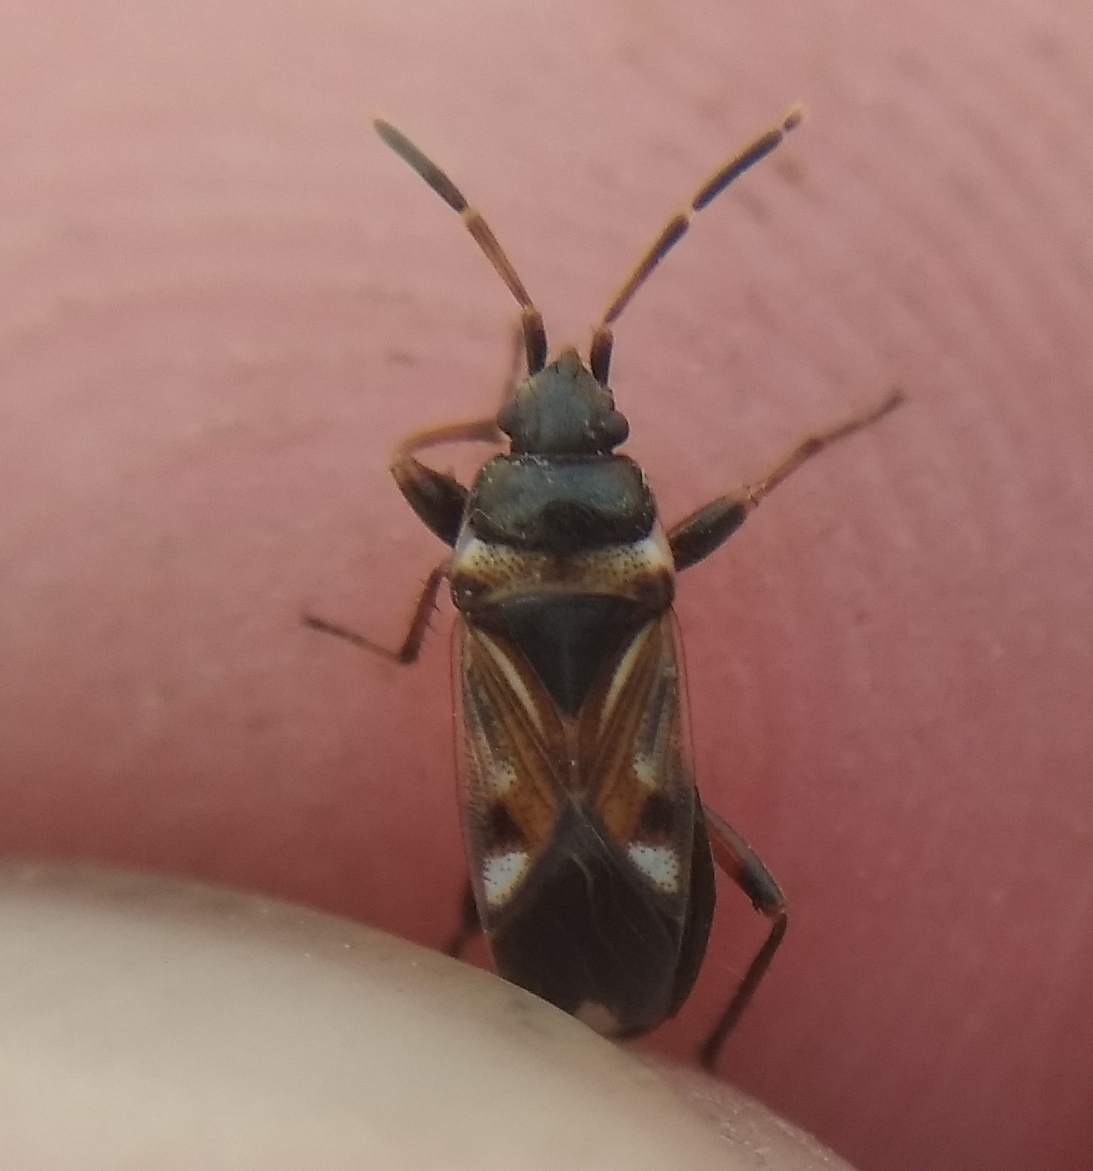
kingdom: Animalia
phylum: Arthropoda
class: Insecta
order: Hemiptera
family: Rhyparochromidae
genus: Raglius
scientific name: Raglius alboacuminatus
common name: Dirt-colored seed bug
